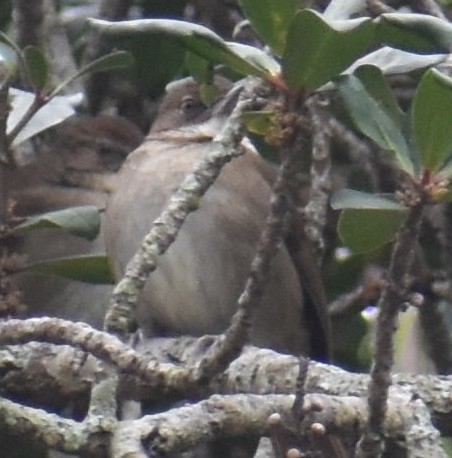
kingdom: Animalia
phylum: Chordata
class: Aves
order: Passeriformes
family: Pycnonotidae
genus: Phyllastrephus
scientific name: Phyllastrephus terrestris
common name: Terrestrial brownbul
